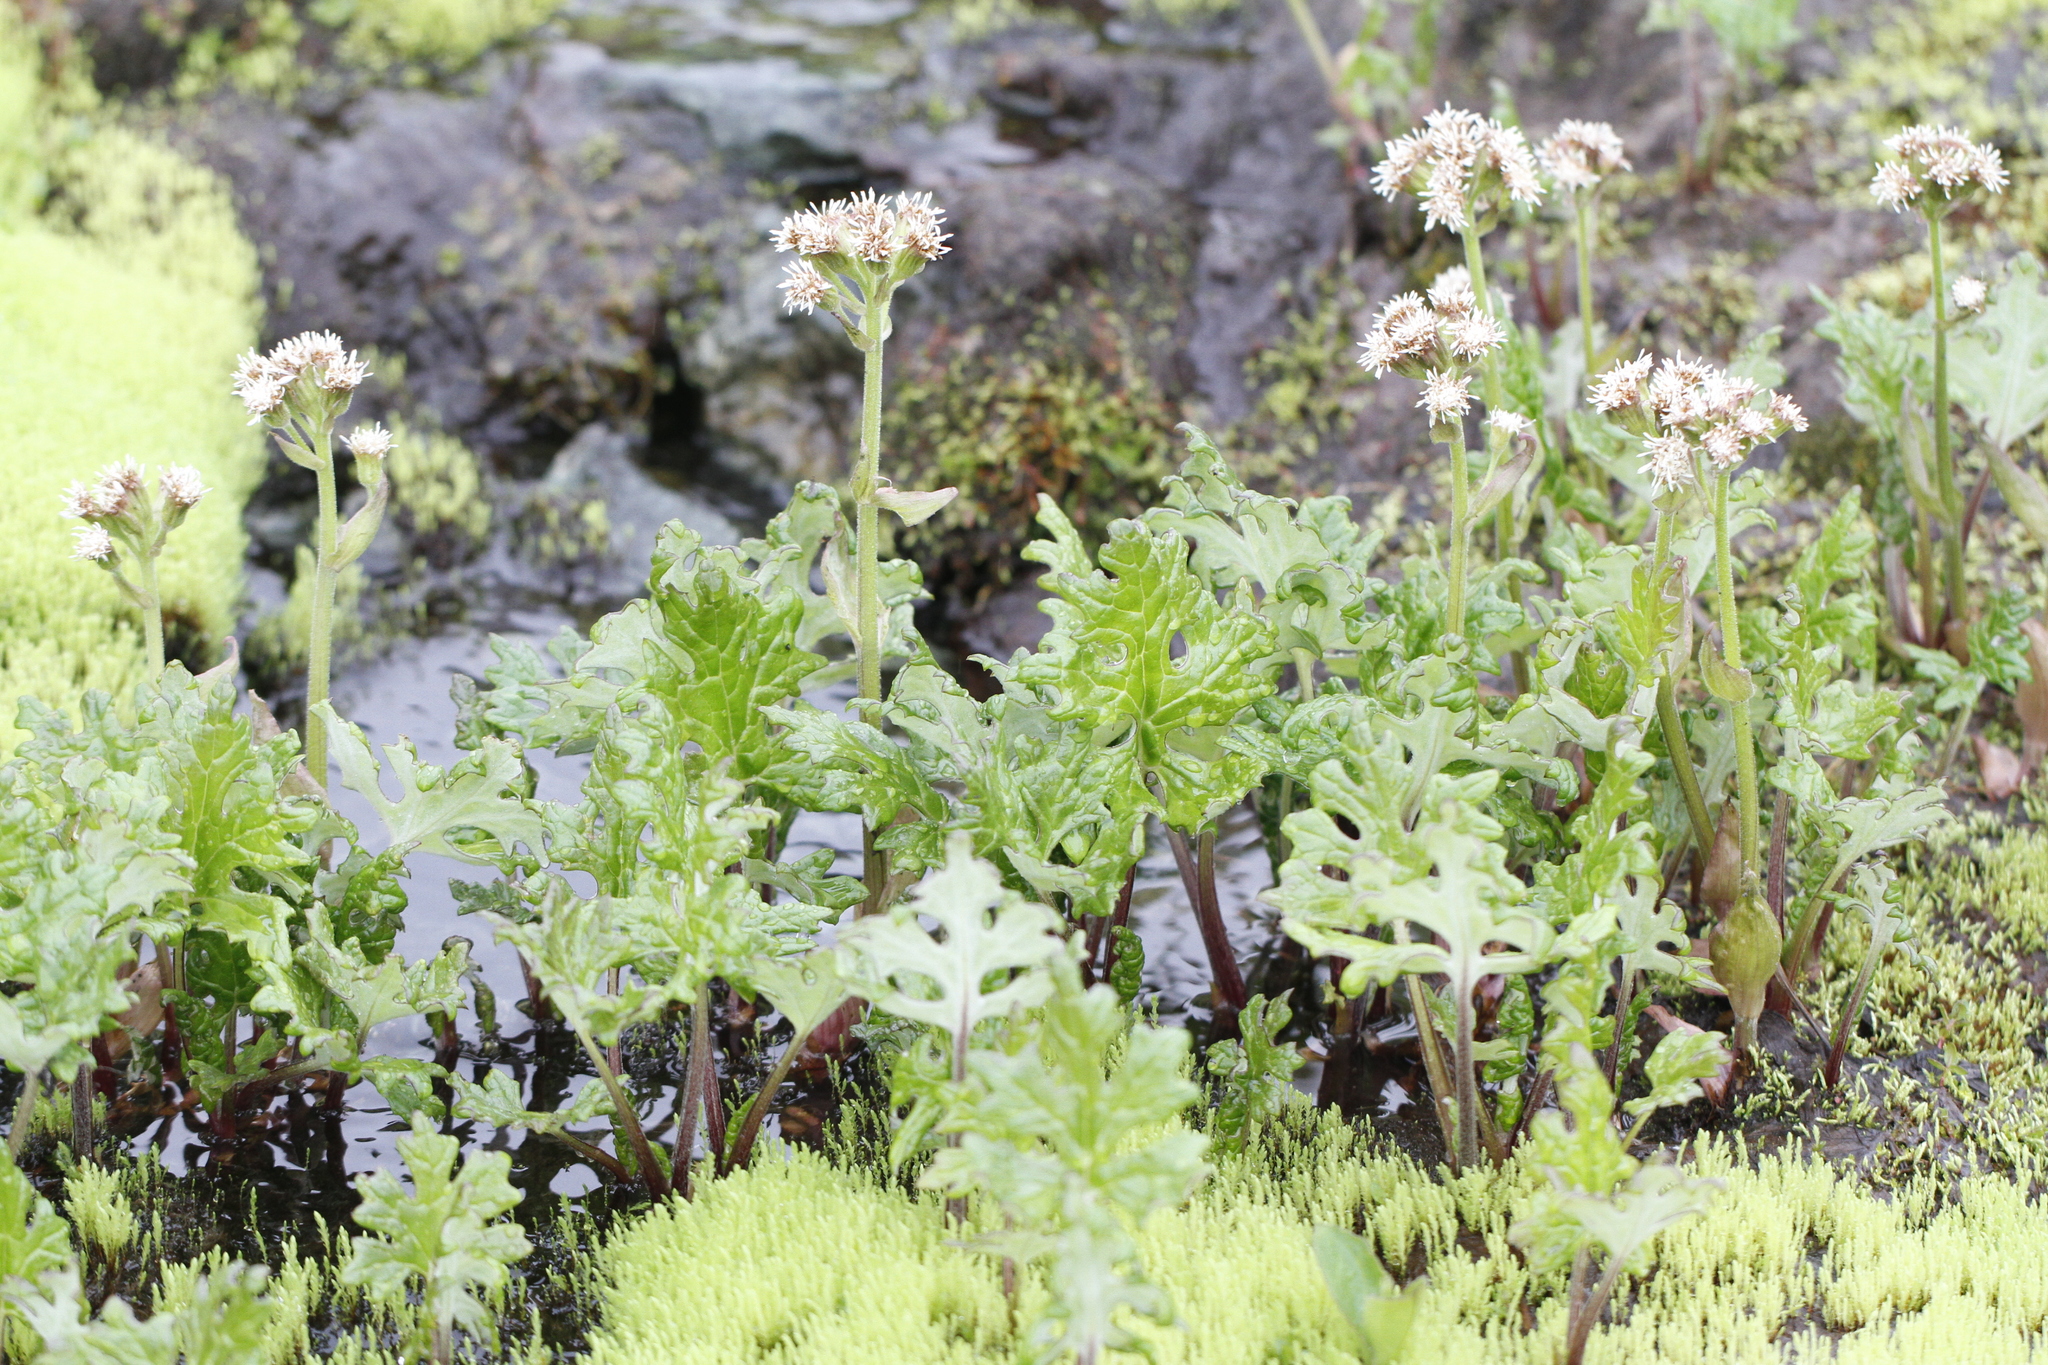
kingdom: Plantae
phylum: Tracheophyta
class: Magnoliopsida
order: Asterales
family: Asteraceae
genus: Petasites
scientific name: Petasites frigidus
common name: Arctic butterbur
